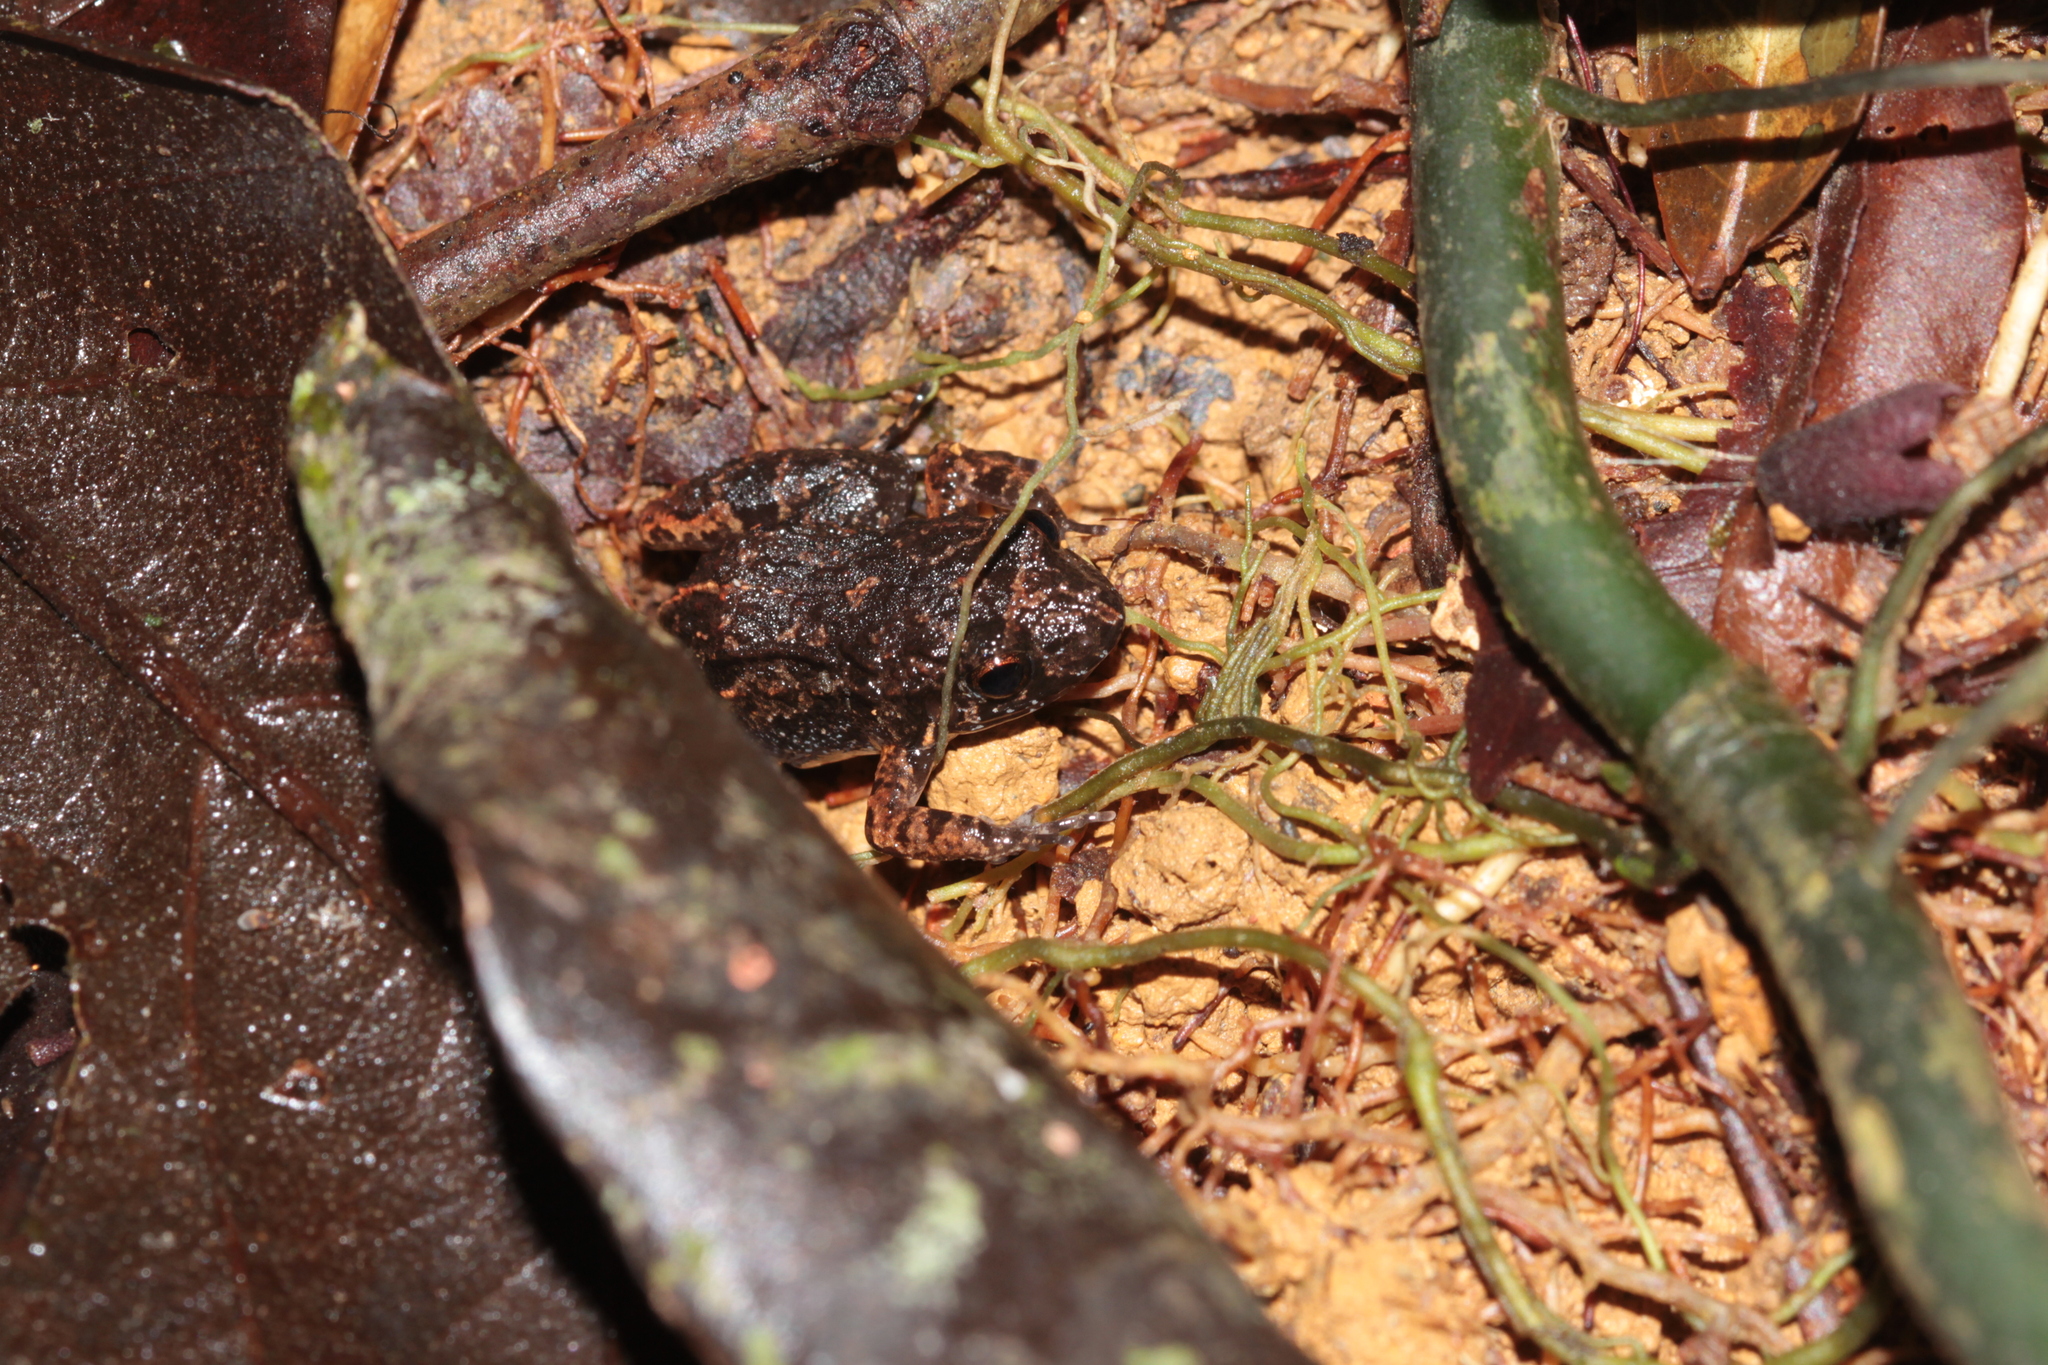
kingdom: Animalia
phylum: Chordata
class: Amphibia
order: Anura
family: Leptodactylidae
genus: Adenomera
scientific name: Adenomera andreae
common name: Lowland tropical bullfrog
